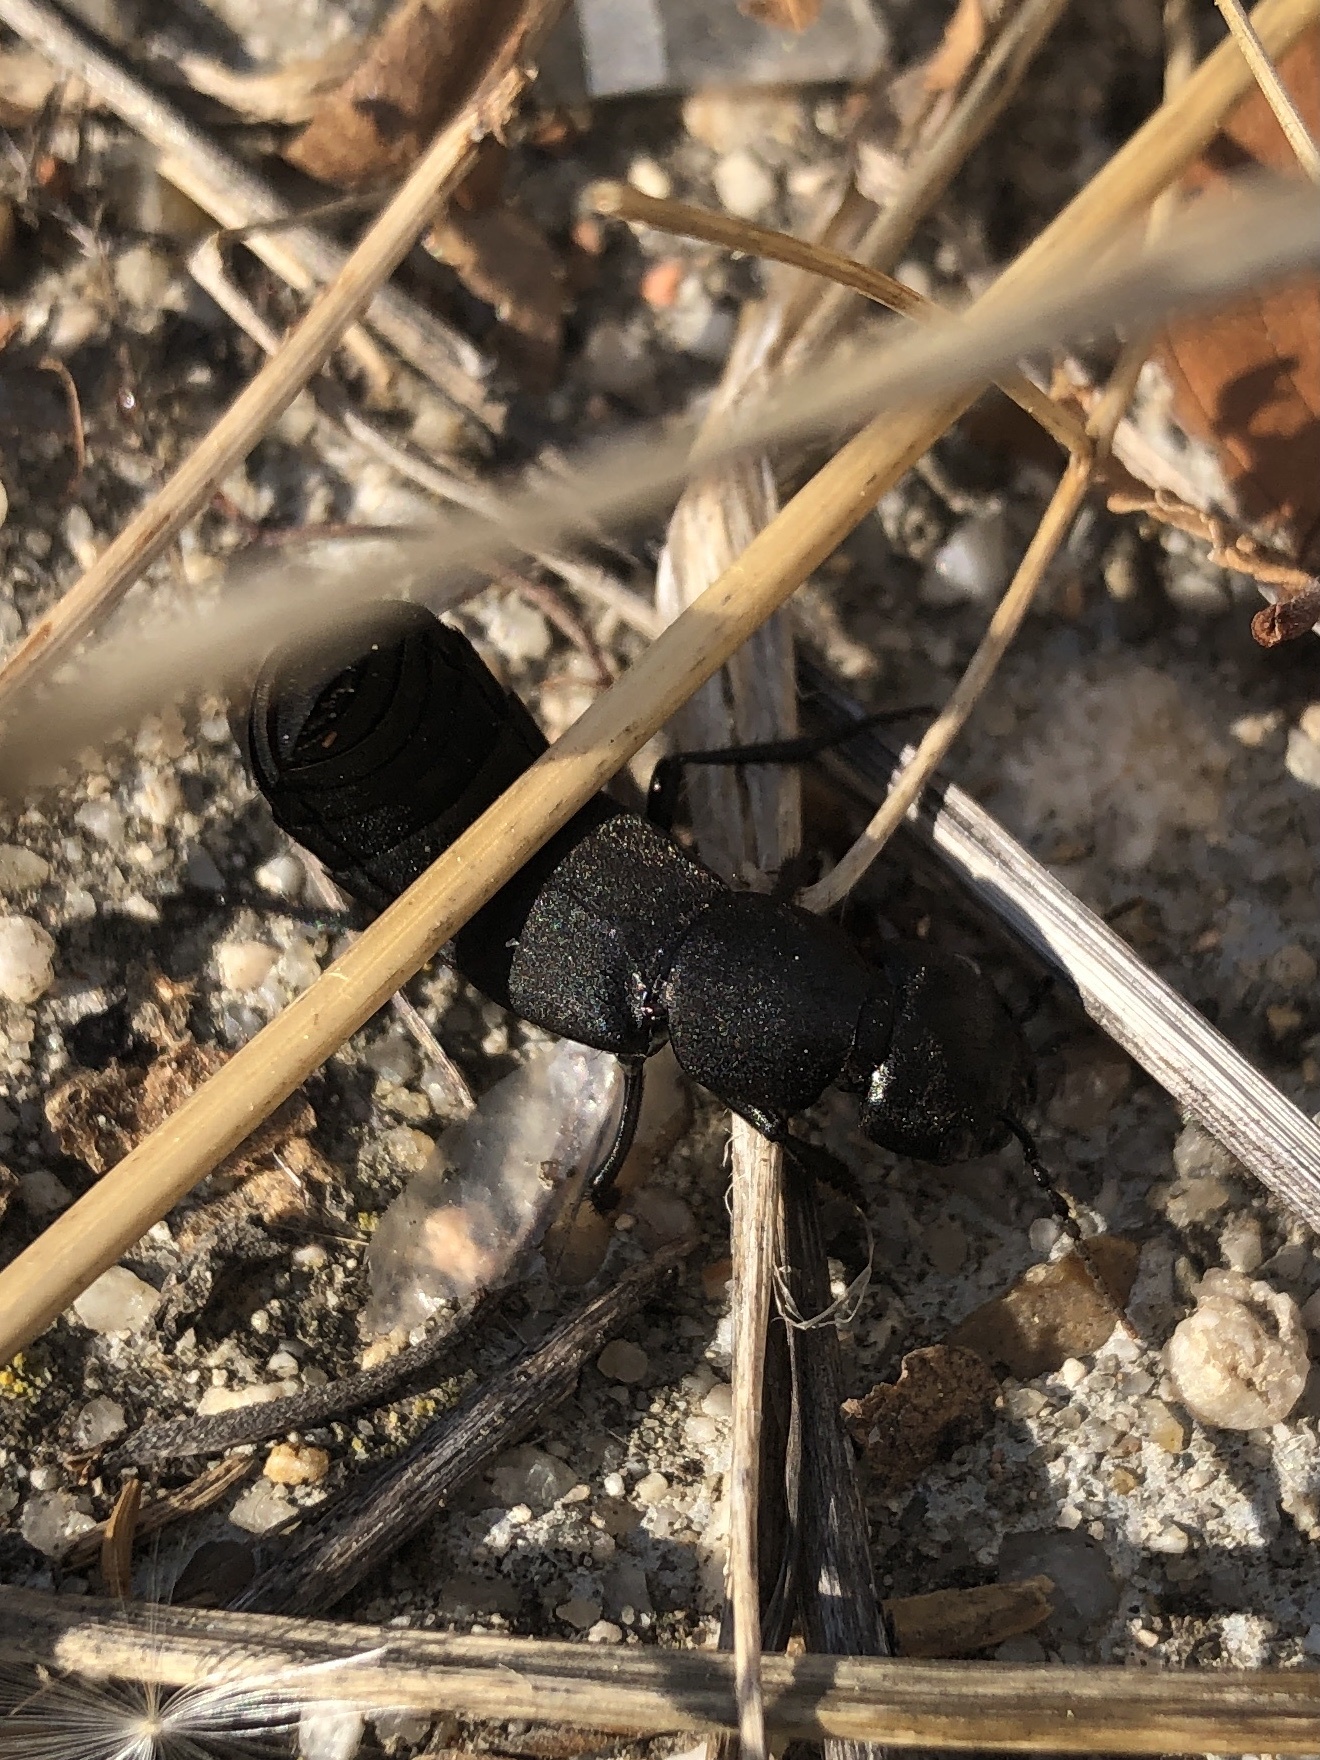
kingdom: Animalia
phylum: Arthropoda
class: Insecta
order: Coleoptera
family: Staphylinidae
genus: Ocypus
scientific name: Ocypus olens
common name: Devil's coach-horse
